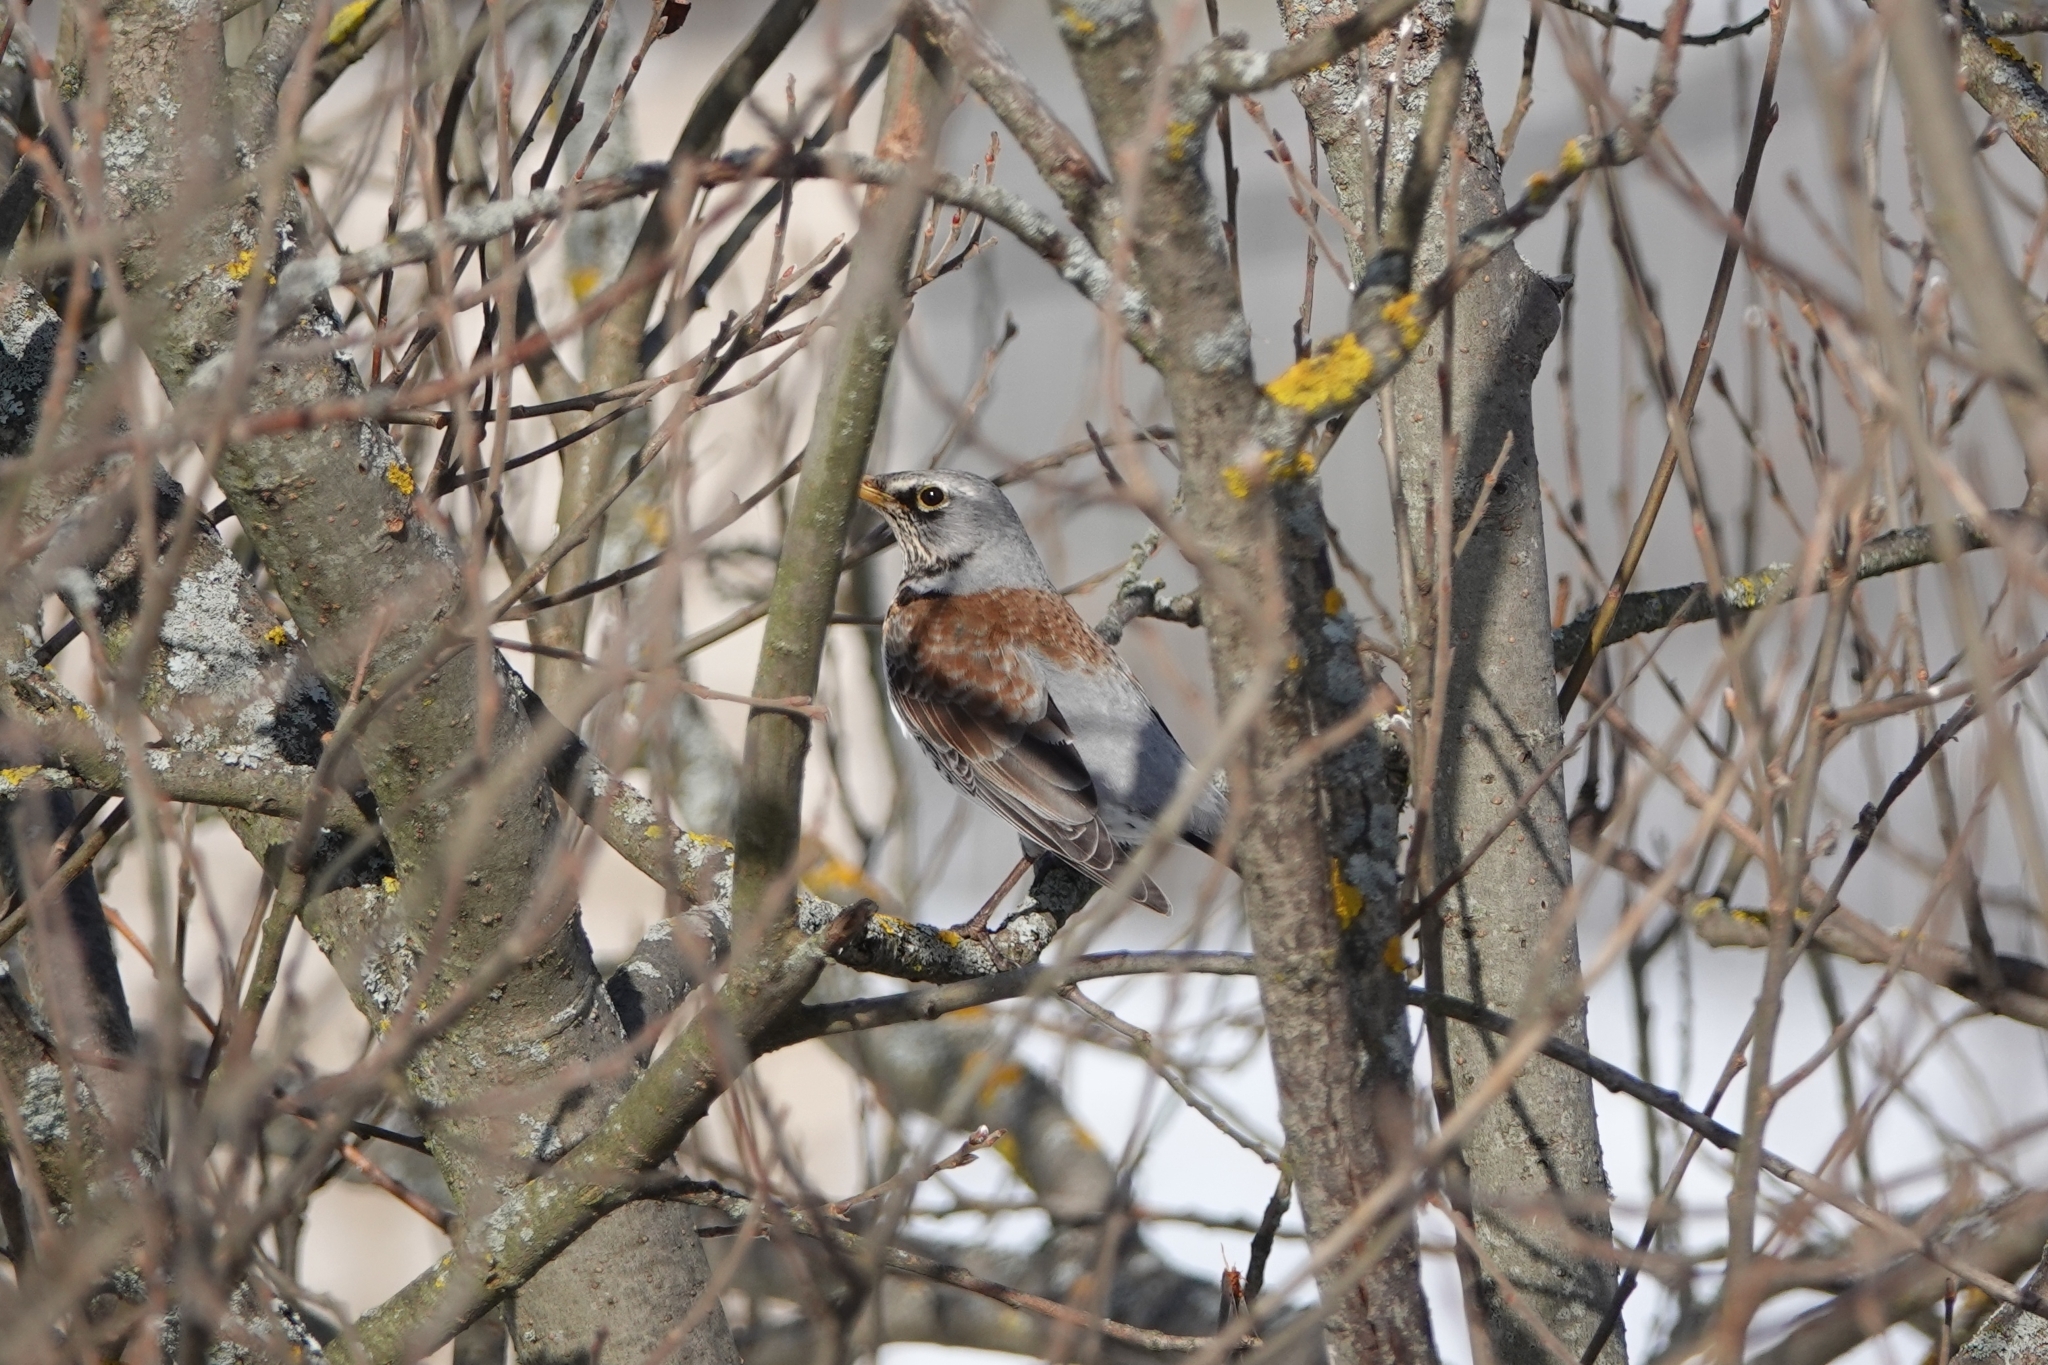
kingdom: Animalia
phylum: Chordata
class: Aves
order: Passeriformes
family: Turdidae
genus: Turdus
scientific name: Turdus pilaris
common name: Fieldfare
